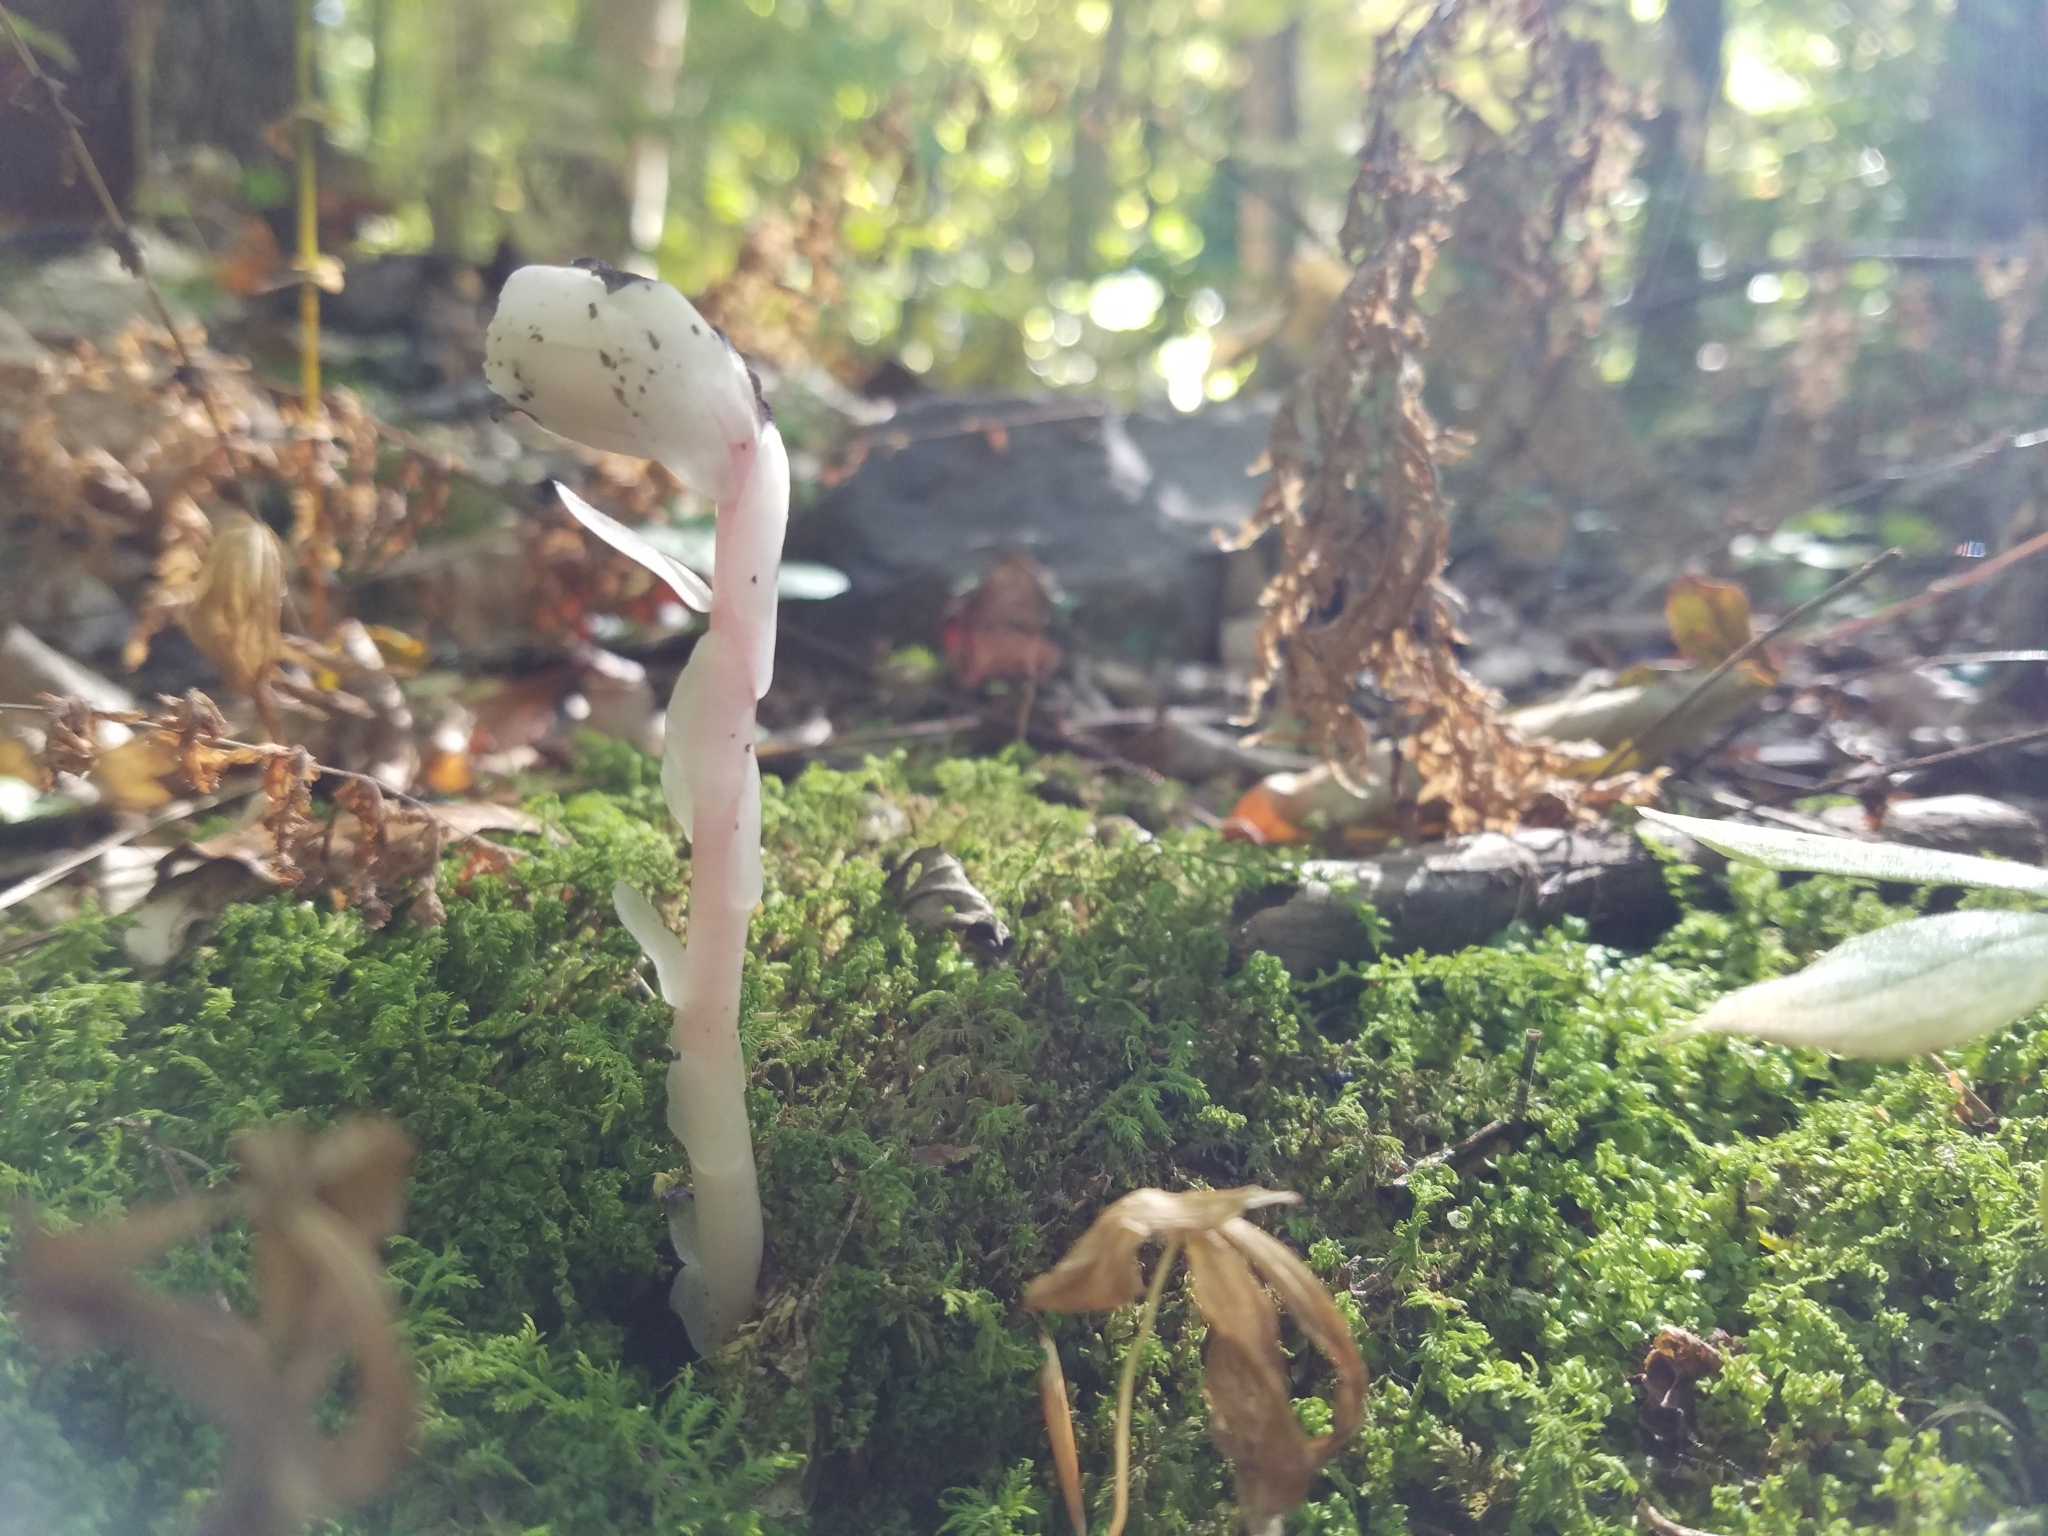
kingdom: Plantae
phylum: Tracheophyta
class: Magnoliopsida
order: Ericales
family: Ericaceae
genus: Monotropa
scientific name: Monotropa uniflora
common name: Convulsion root
